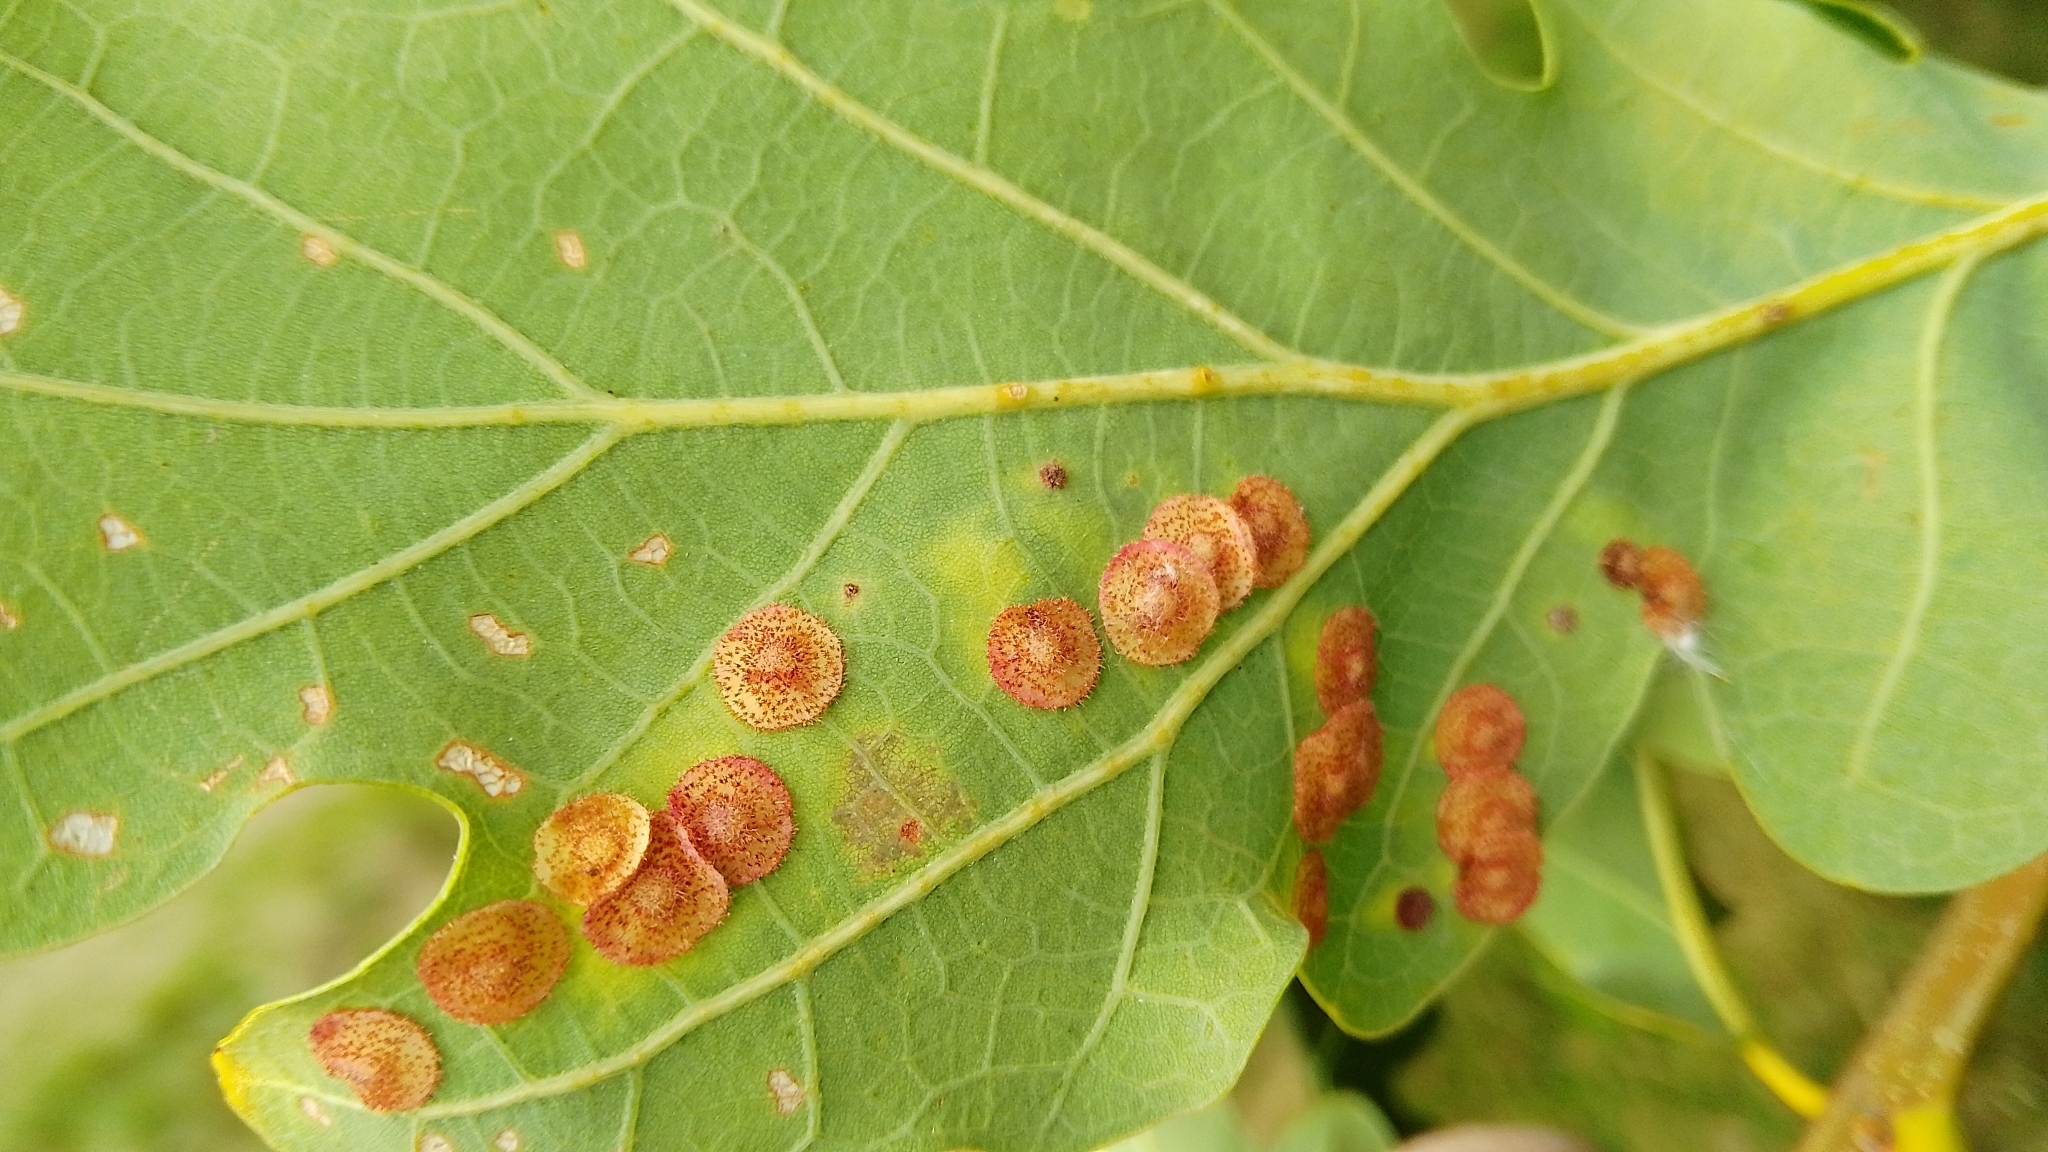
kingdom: Animalia
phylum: Arthropoda
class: Insecta
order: Hymenoptera
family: Cynipidae
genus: Neuroterus
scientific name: Neuroterus quercusbaccarum
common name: Common spangle gall
